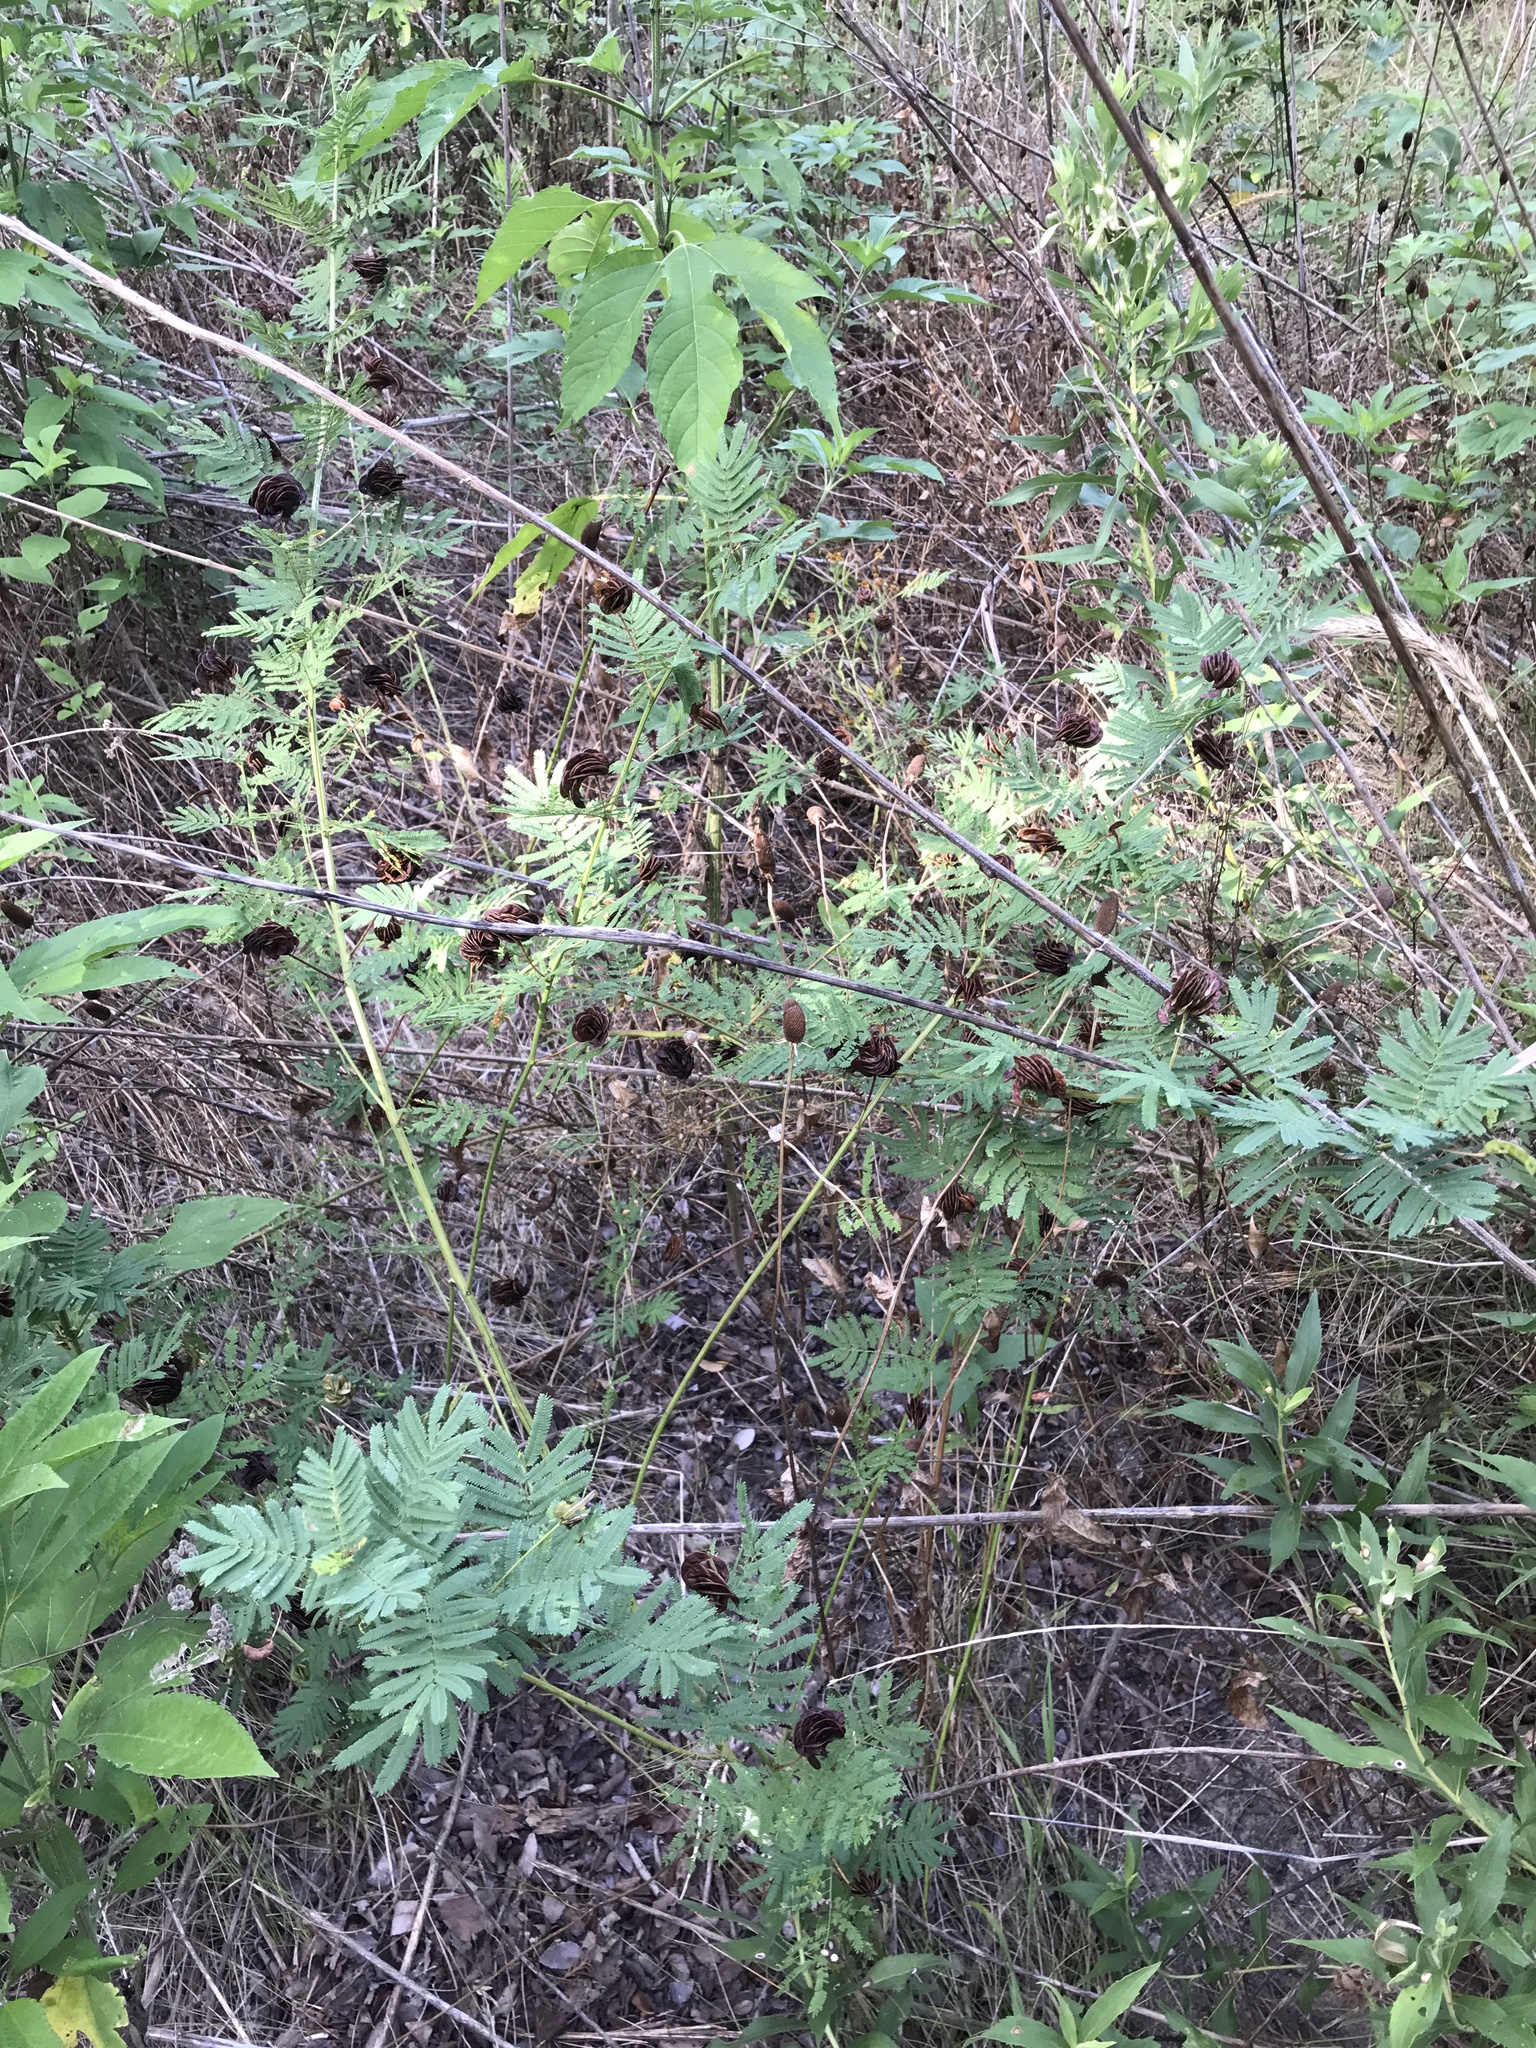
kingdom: Plantae
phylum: Tracheophyta
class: Magnoliopsida
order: Fabales
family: Fabaceae
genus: Desmanthus
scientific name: Desmanthus illinoensis
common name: Illinois bundle-flower
